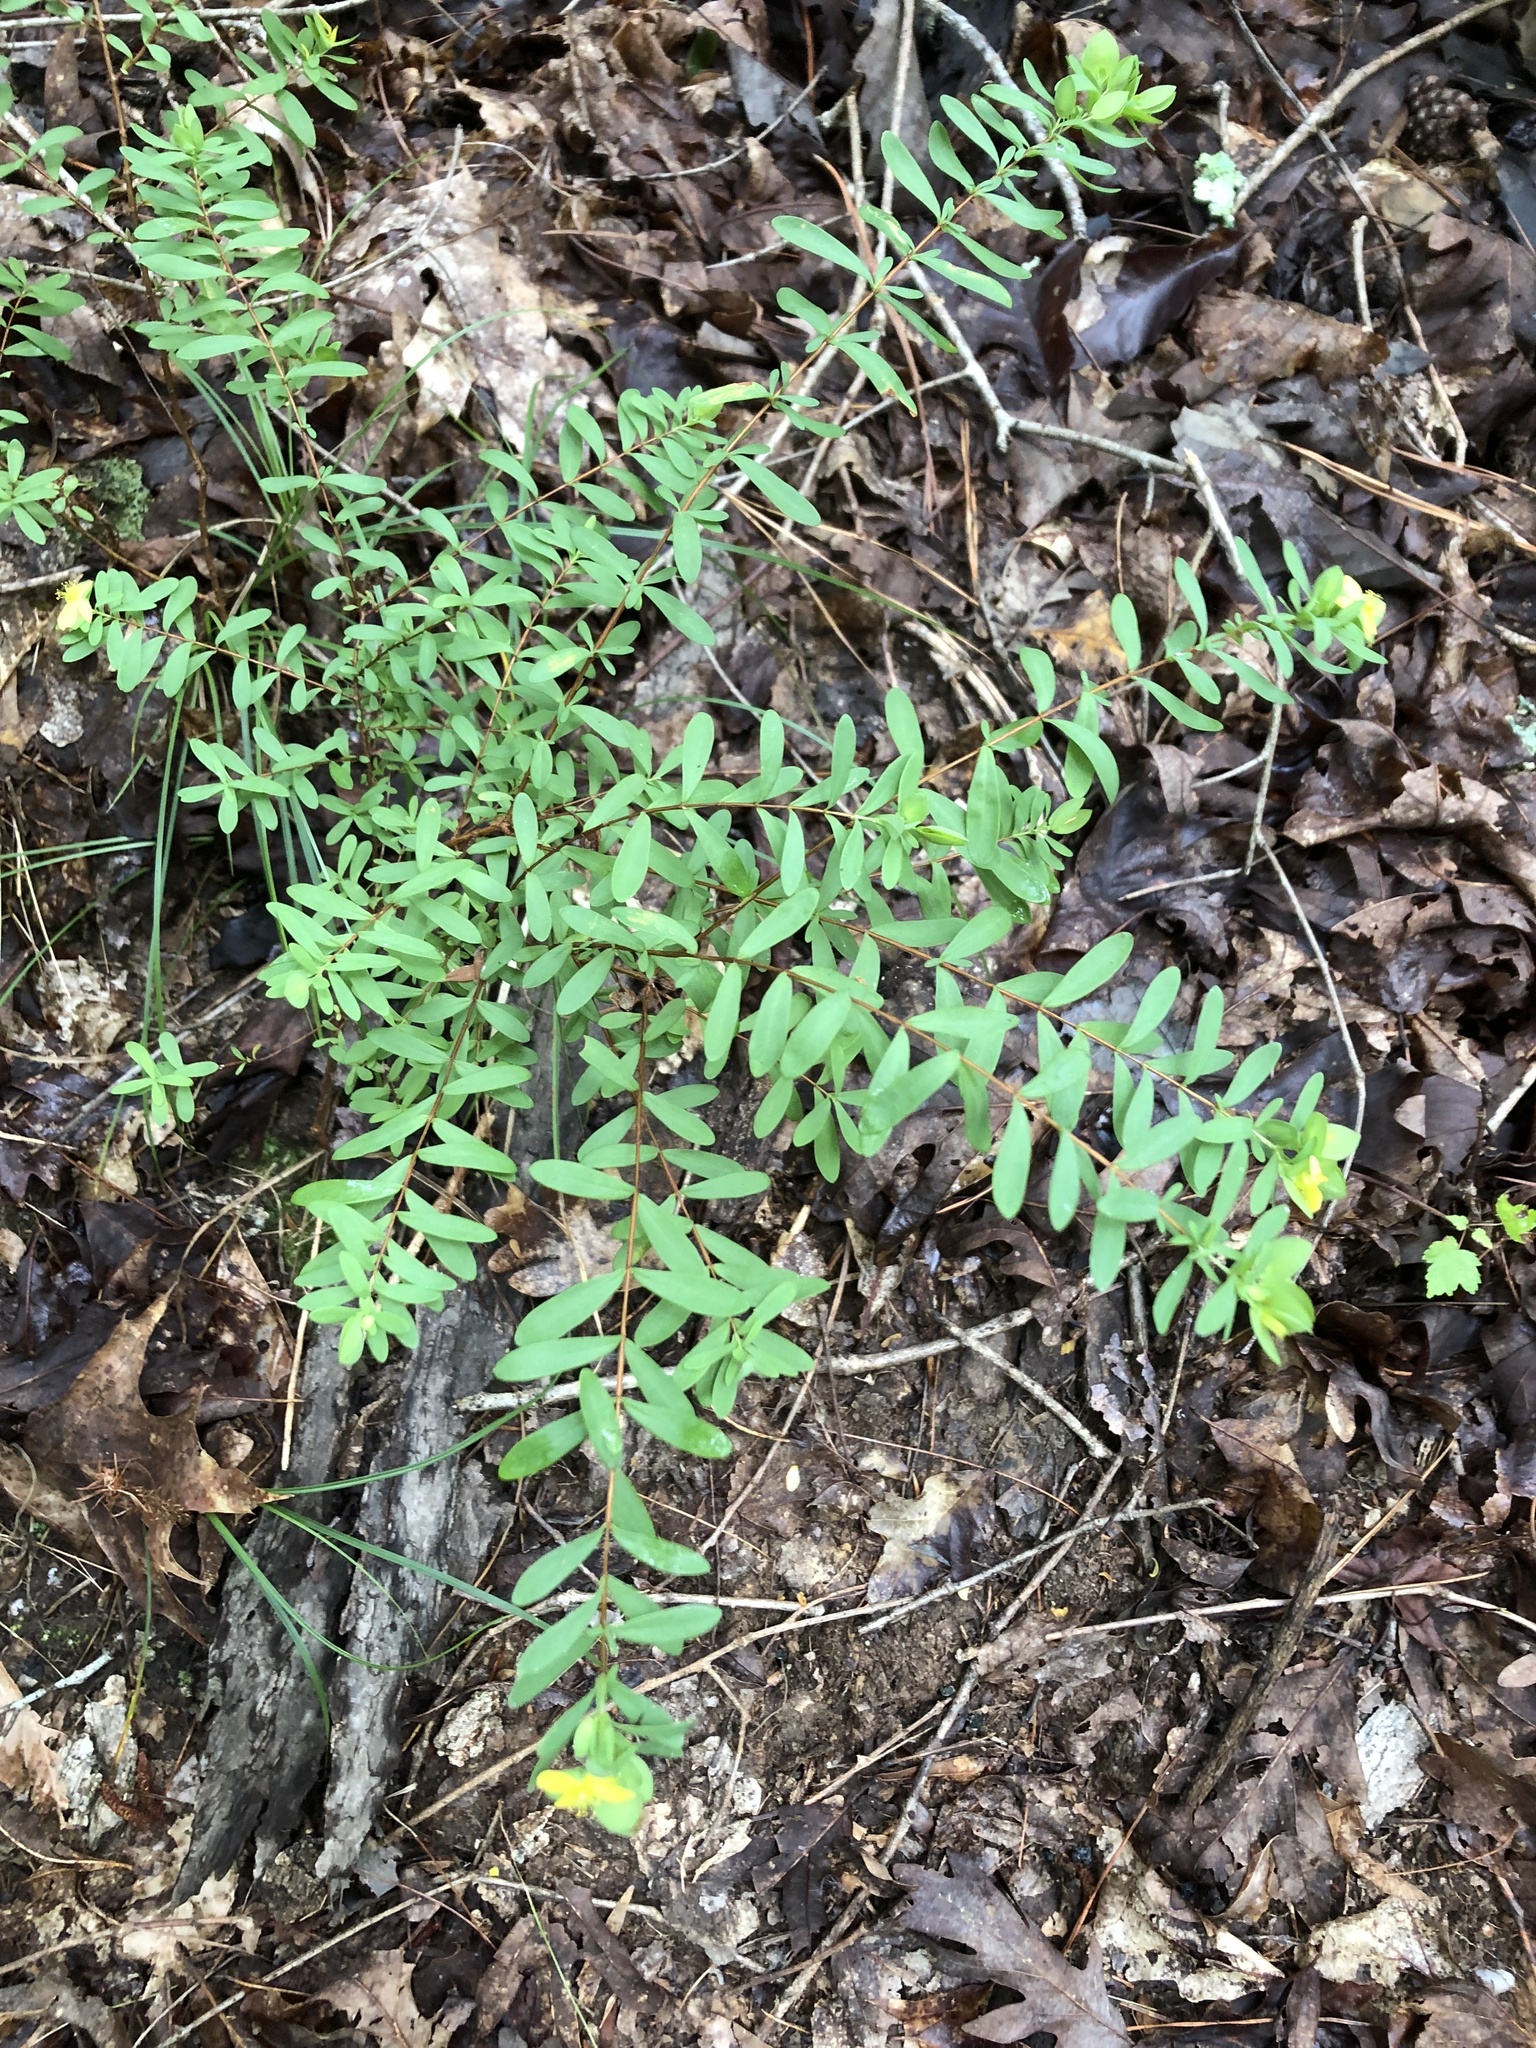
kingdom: Plantae
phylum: Tracheophyta
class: Magnoliopsida
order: Malpighiales
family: Hypericaceae
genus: Hypericum
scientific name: Hypericum hypericoides
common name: St. andrew's cross
